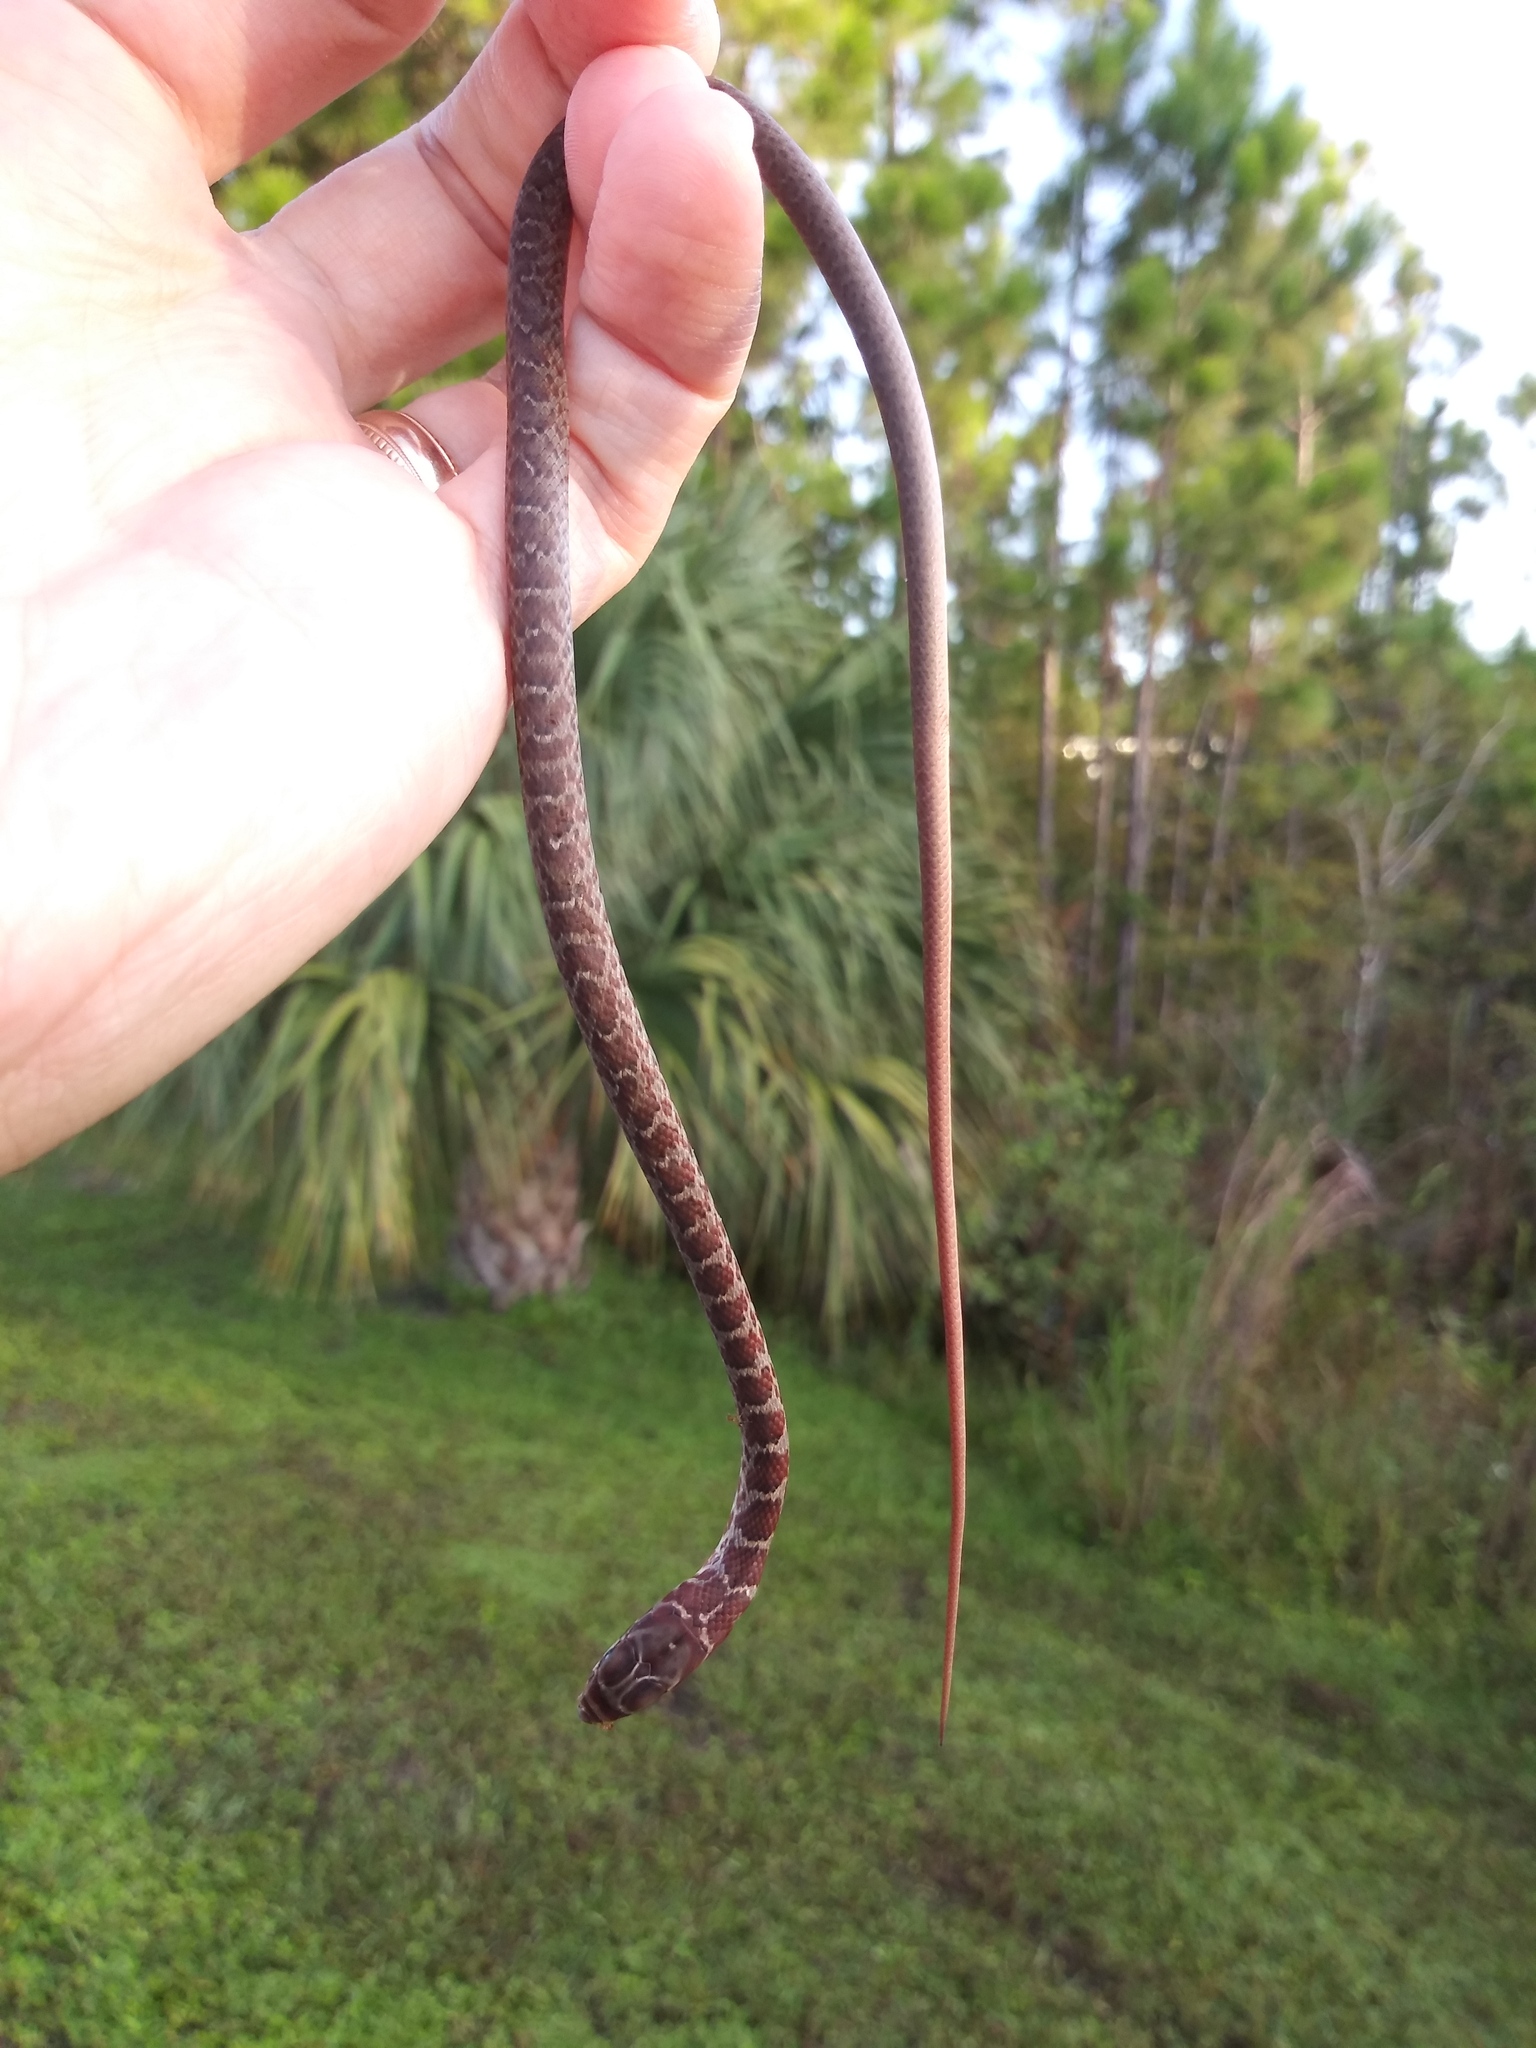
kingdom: Animalia
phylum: Chordata
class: Squamata
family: Colubridae
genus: Coluber
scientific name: Coluber constrictor
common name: Eastern racer
